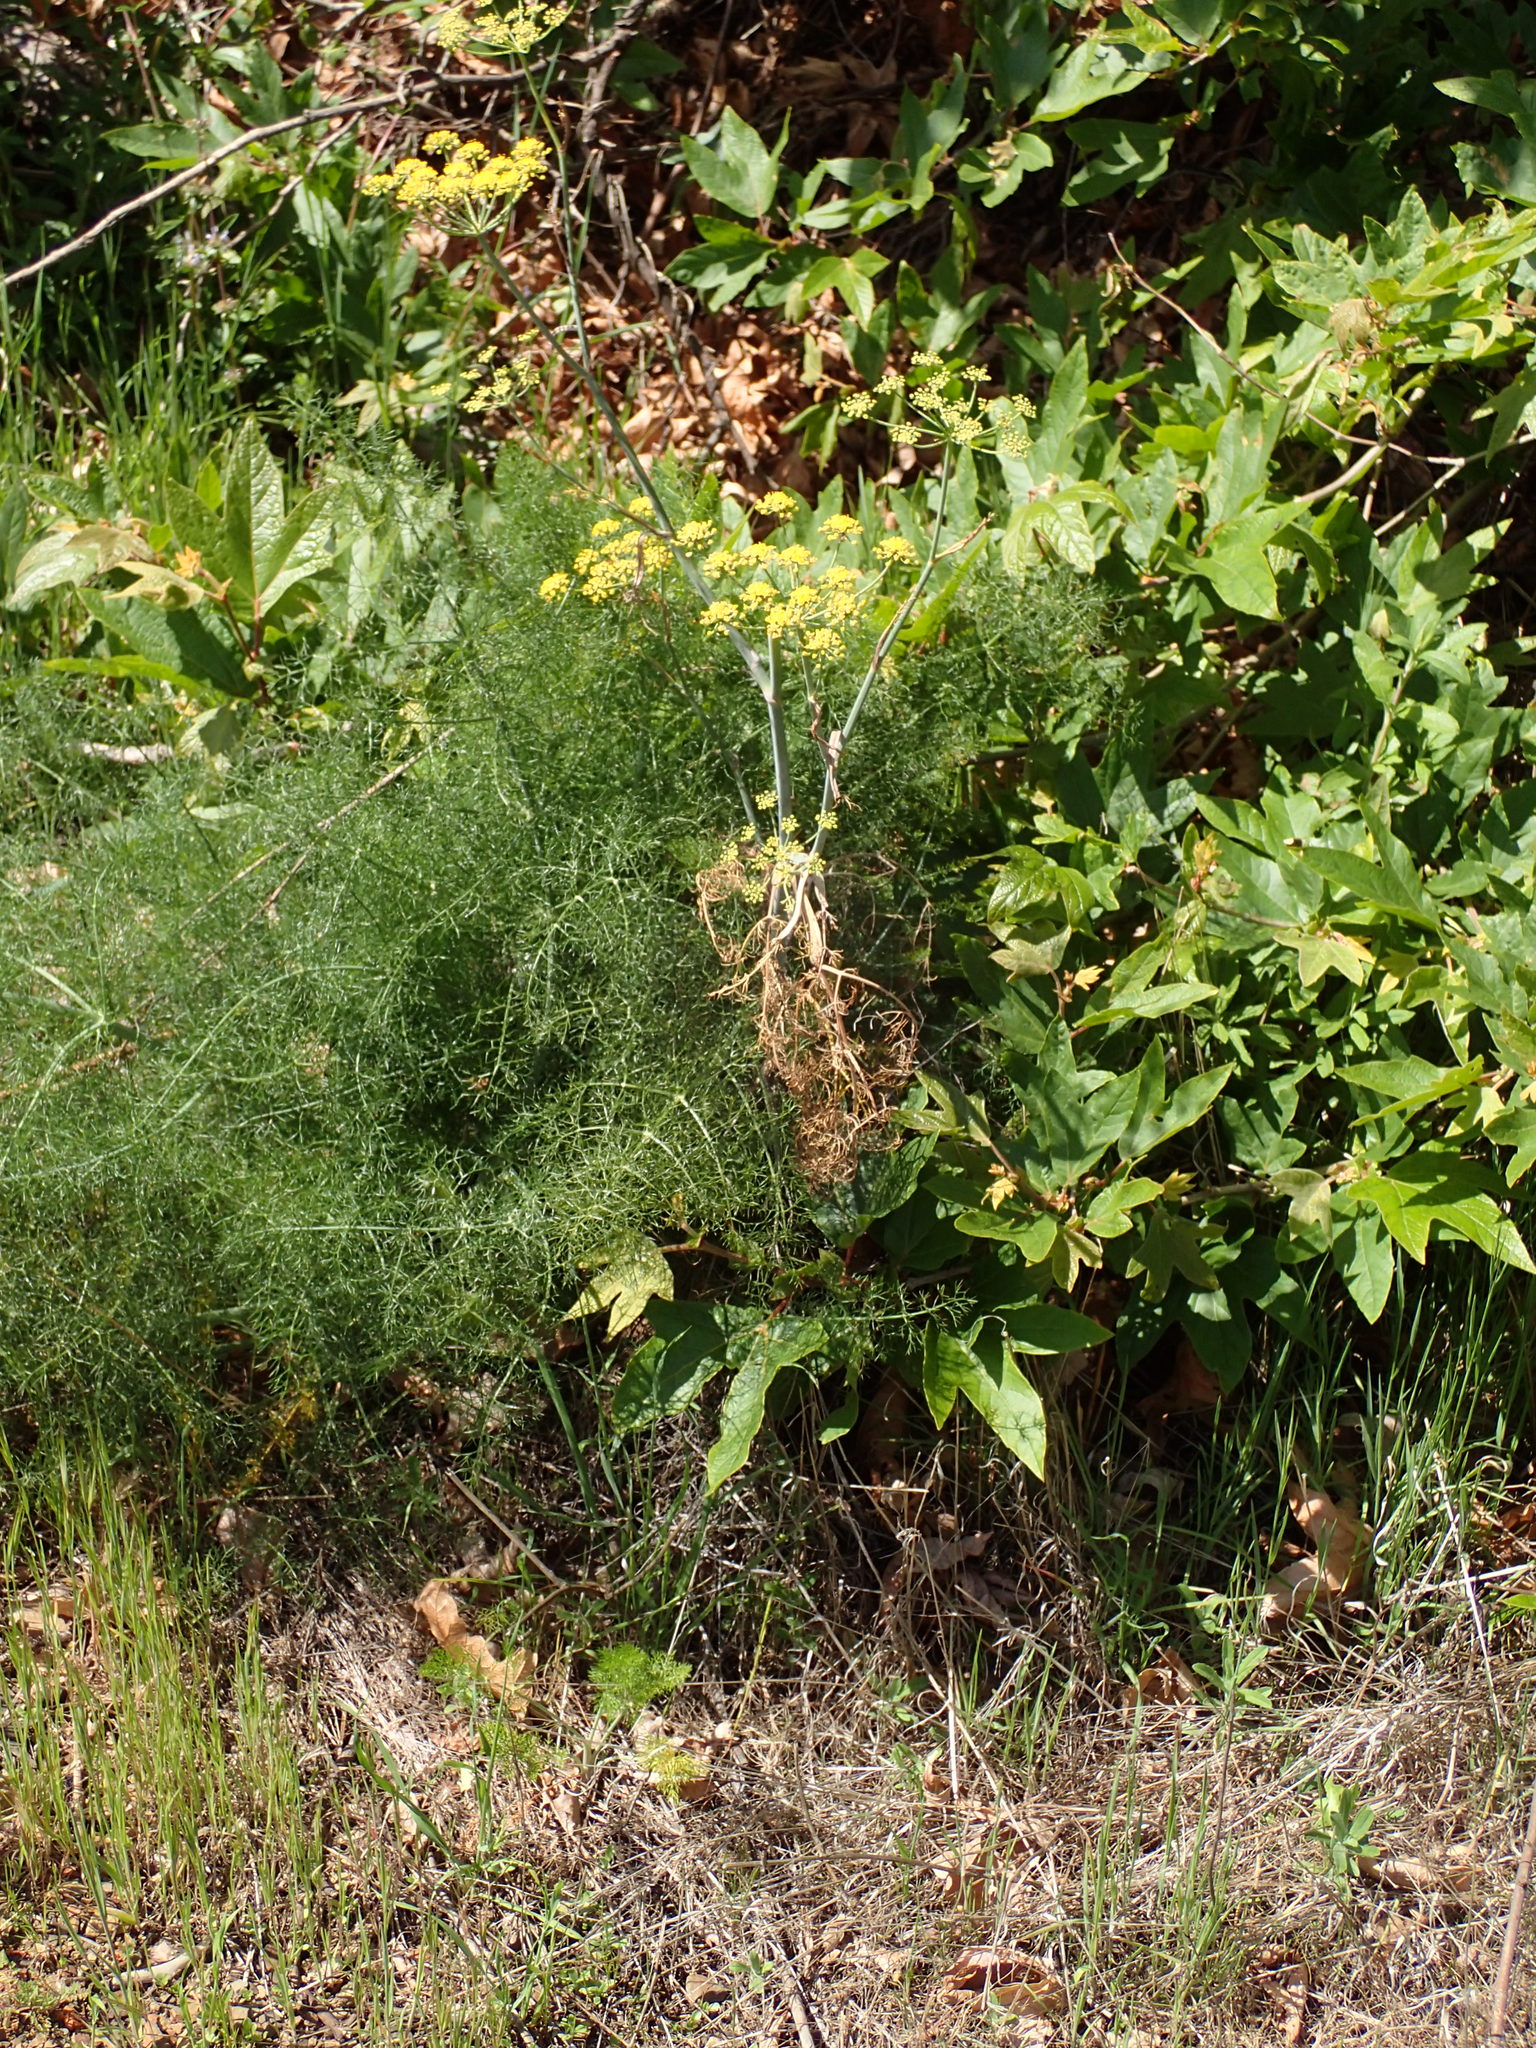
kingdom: Plantae
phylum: Tracheophyta
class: Magnoliopsida
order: Apiales
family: Apiaceae
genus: Foeniculum
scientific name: Foeniculum vulgare
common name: Fennel
